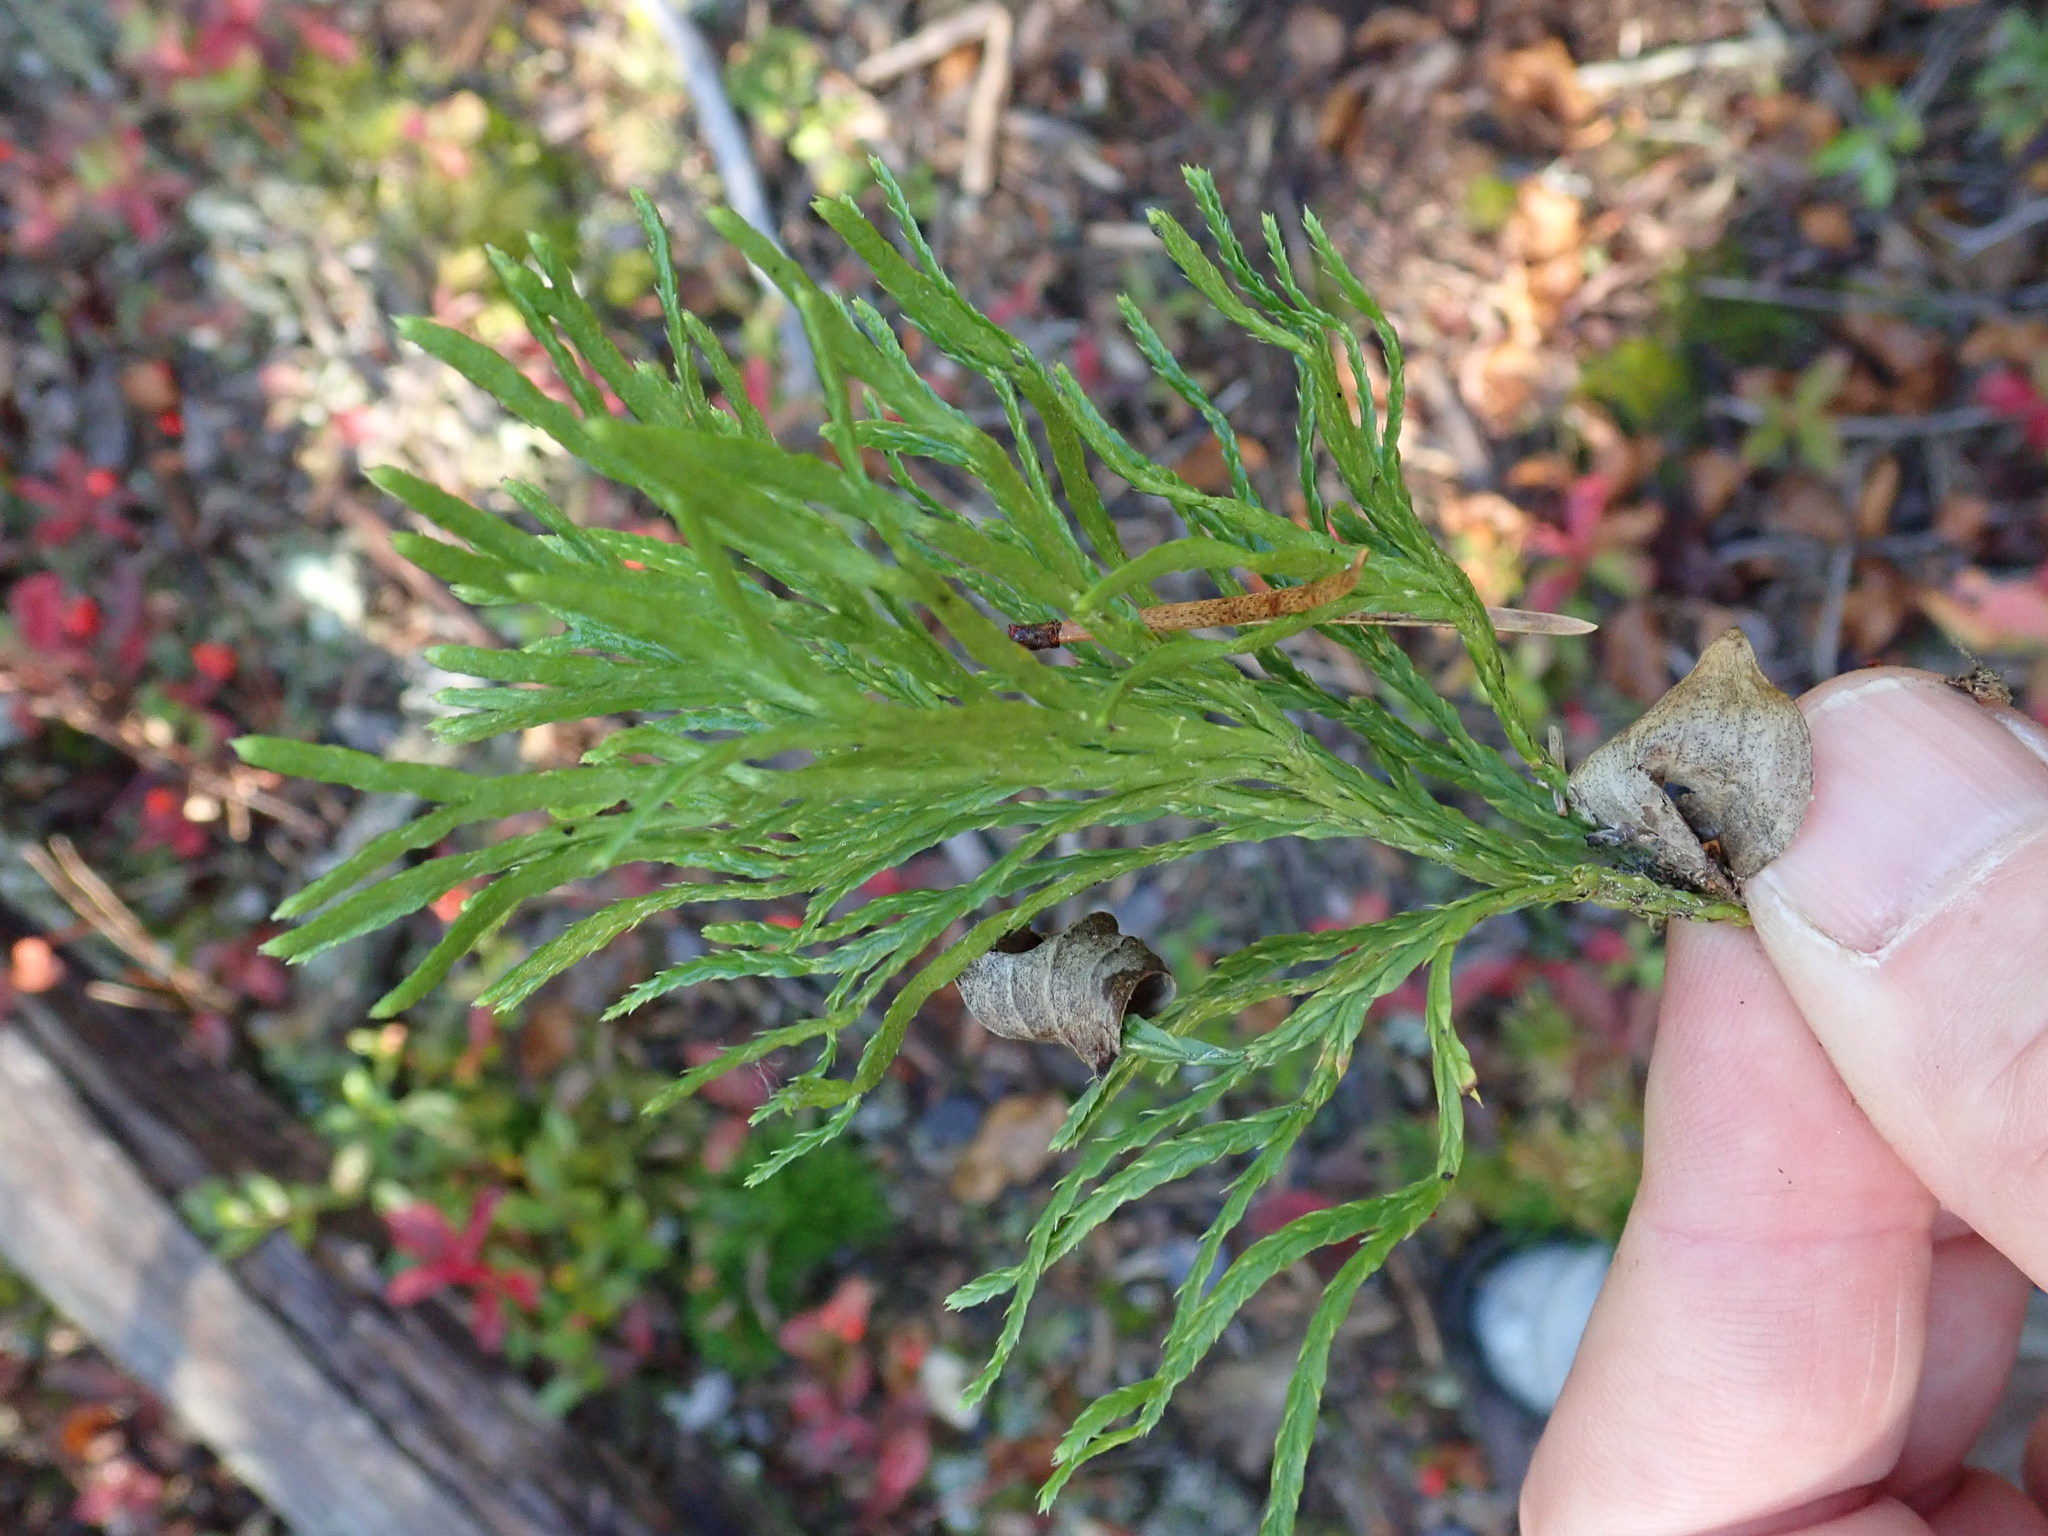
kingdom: Plantae
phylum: Tracheophyta
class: Lycopodiopsida
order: Lycopodiales
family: Lycopodiaceae
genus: Diphasiastrum
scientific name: Diphasiastrum complanatum
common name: Northern running-pine
